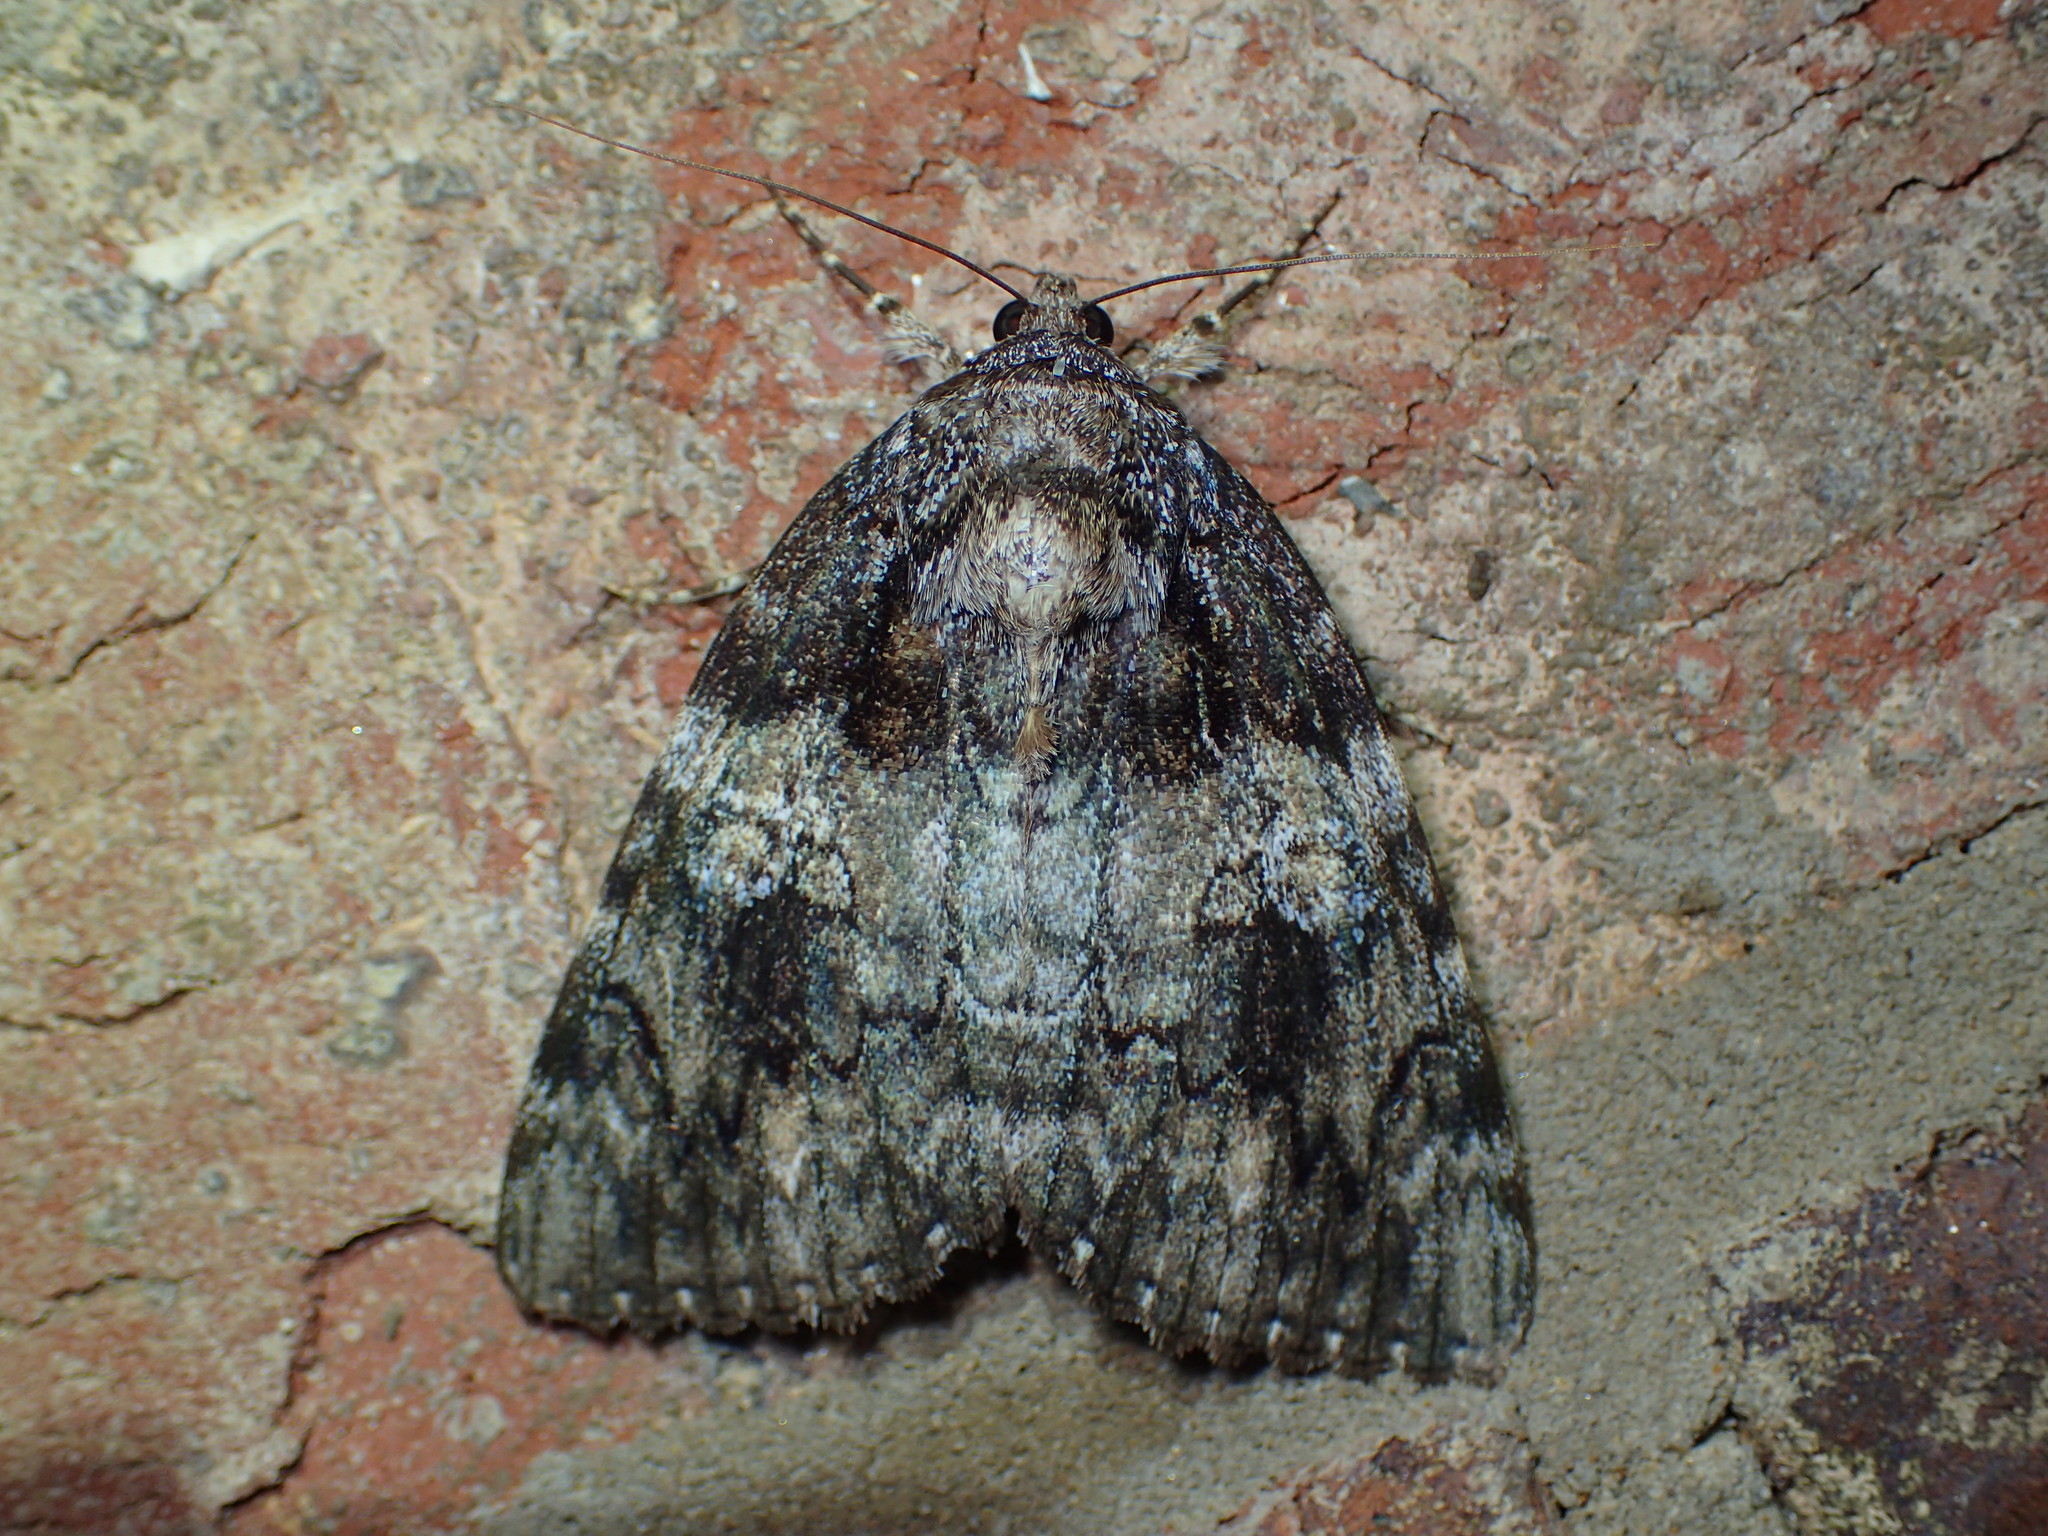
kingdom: Animalia
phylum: Arthropoda
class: Insecta
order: Lepidoptera
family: Erebidae
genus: Catocala
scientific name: Catocala ilia
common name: Ilia underwing
